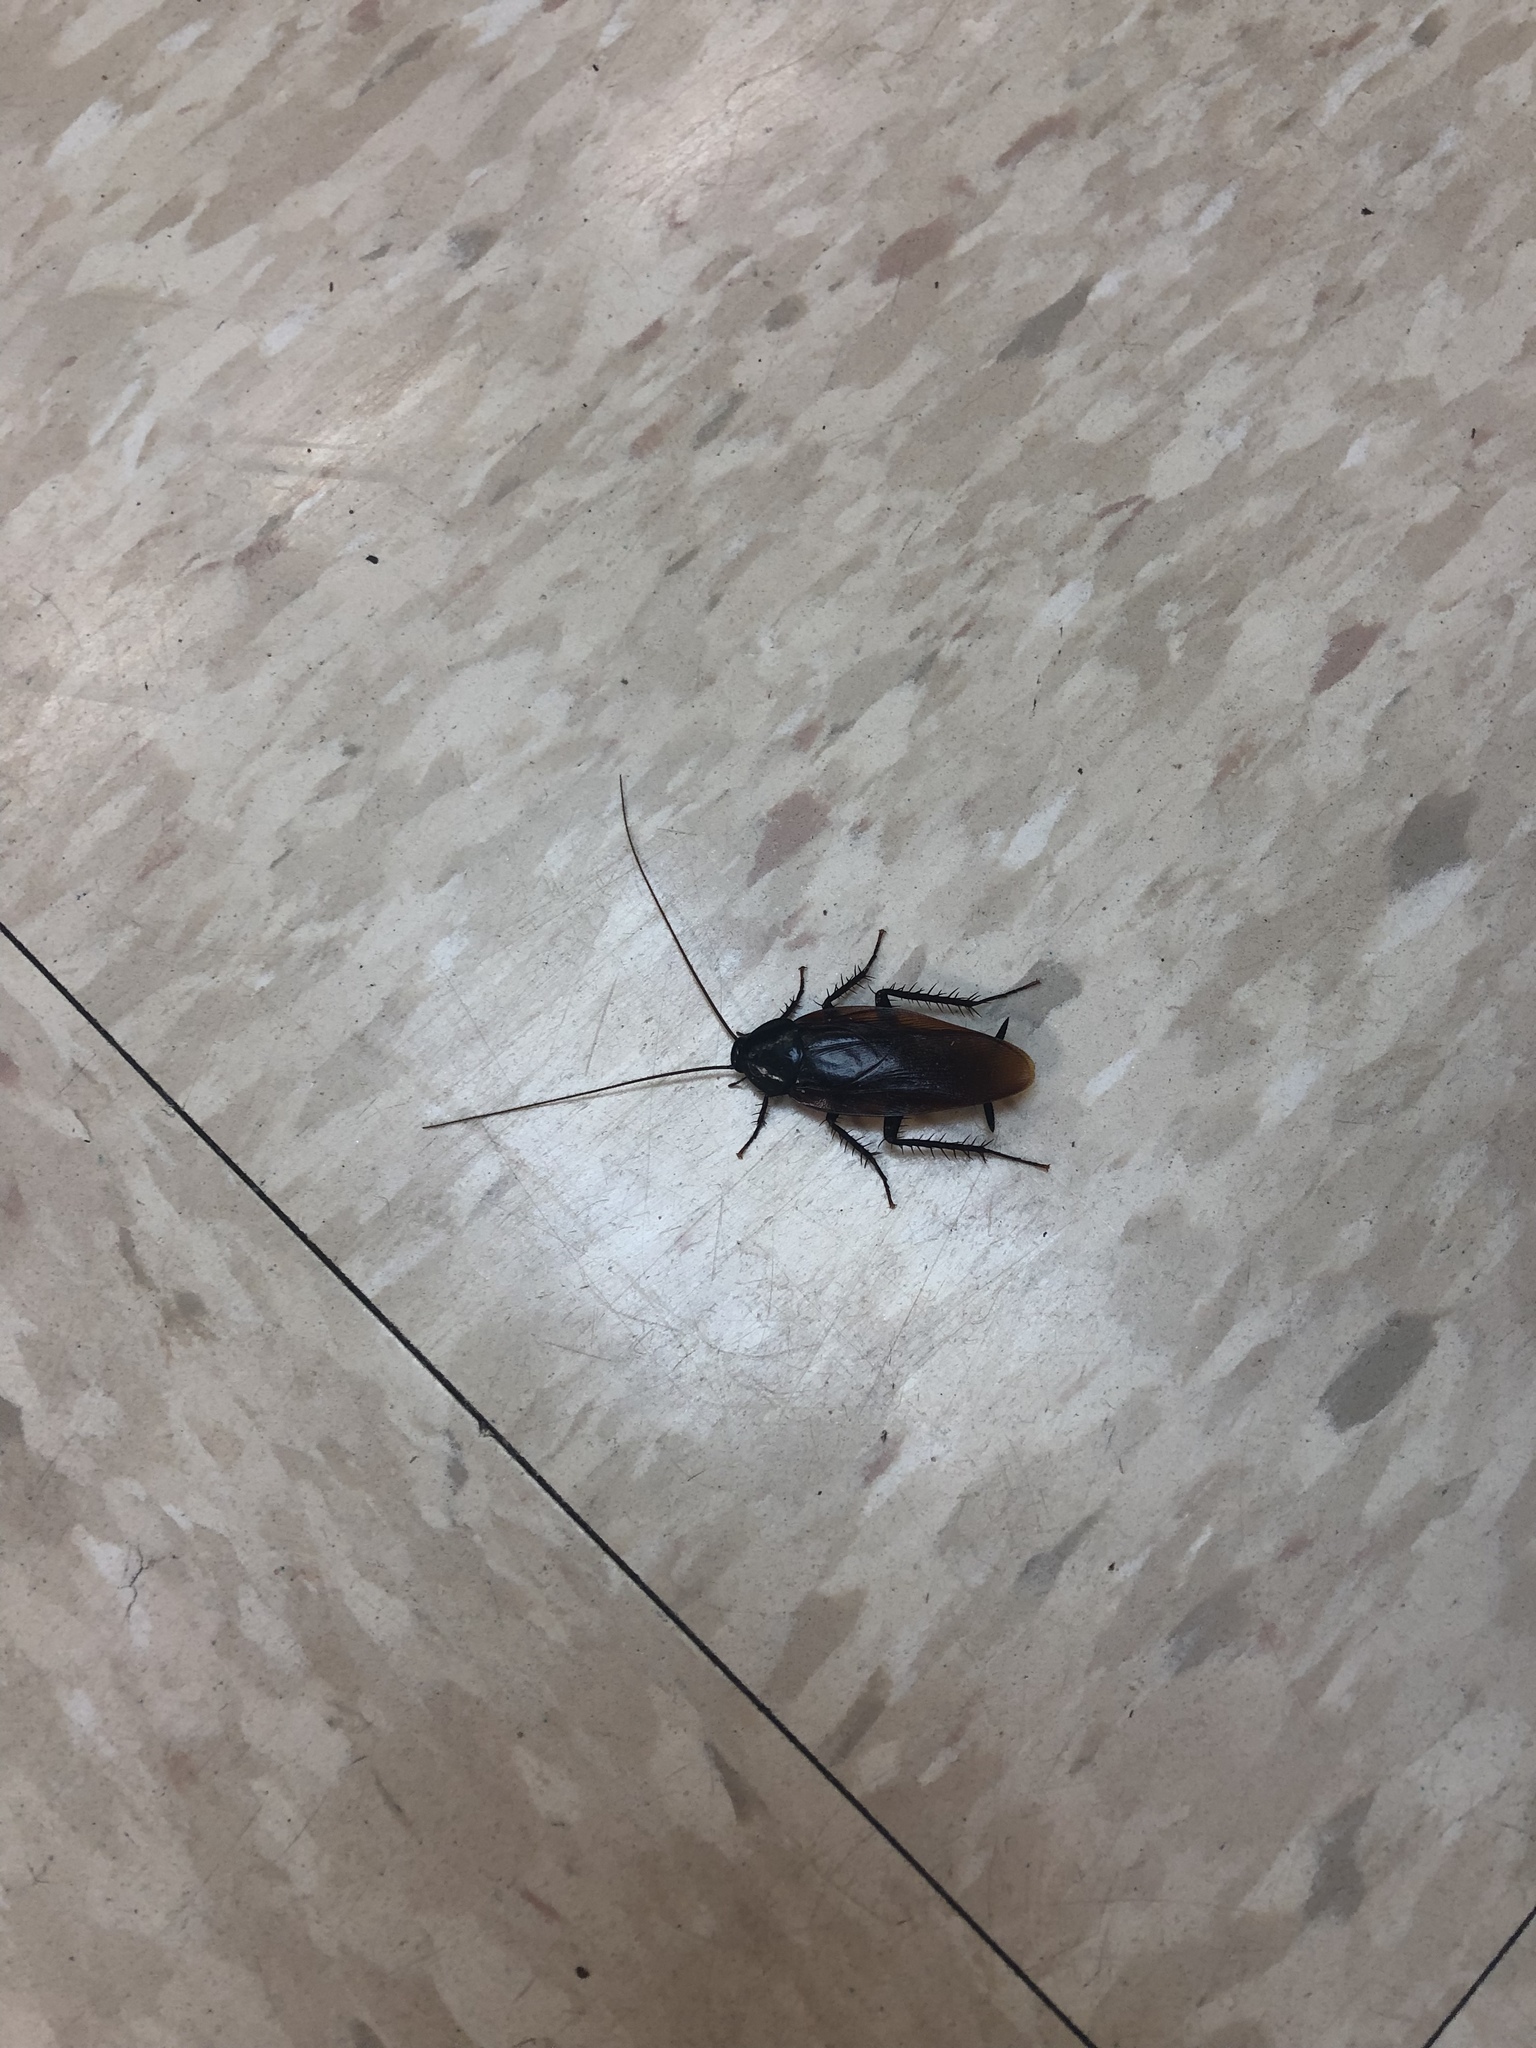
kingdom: Animalia
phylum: Arthropoda
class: Insecta
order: Blattodea
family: Blattidae
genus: Periplaneta
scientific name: Periplaneta fuliginosa
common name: Smokeybrown cockroad
